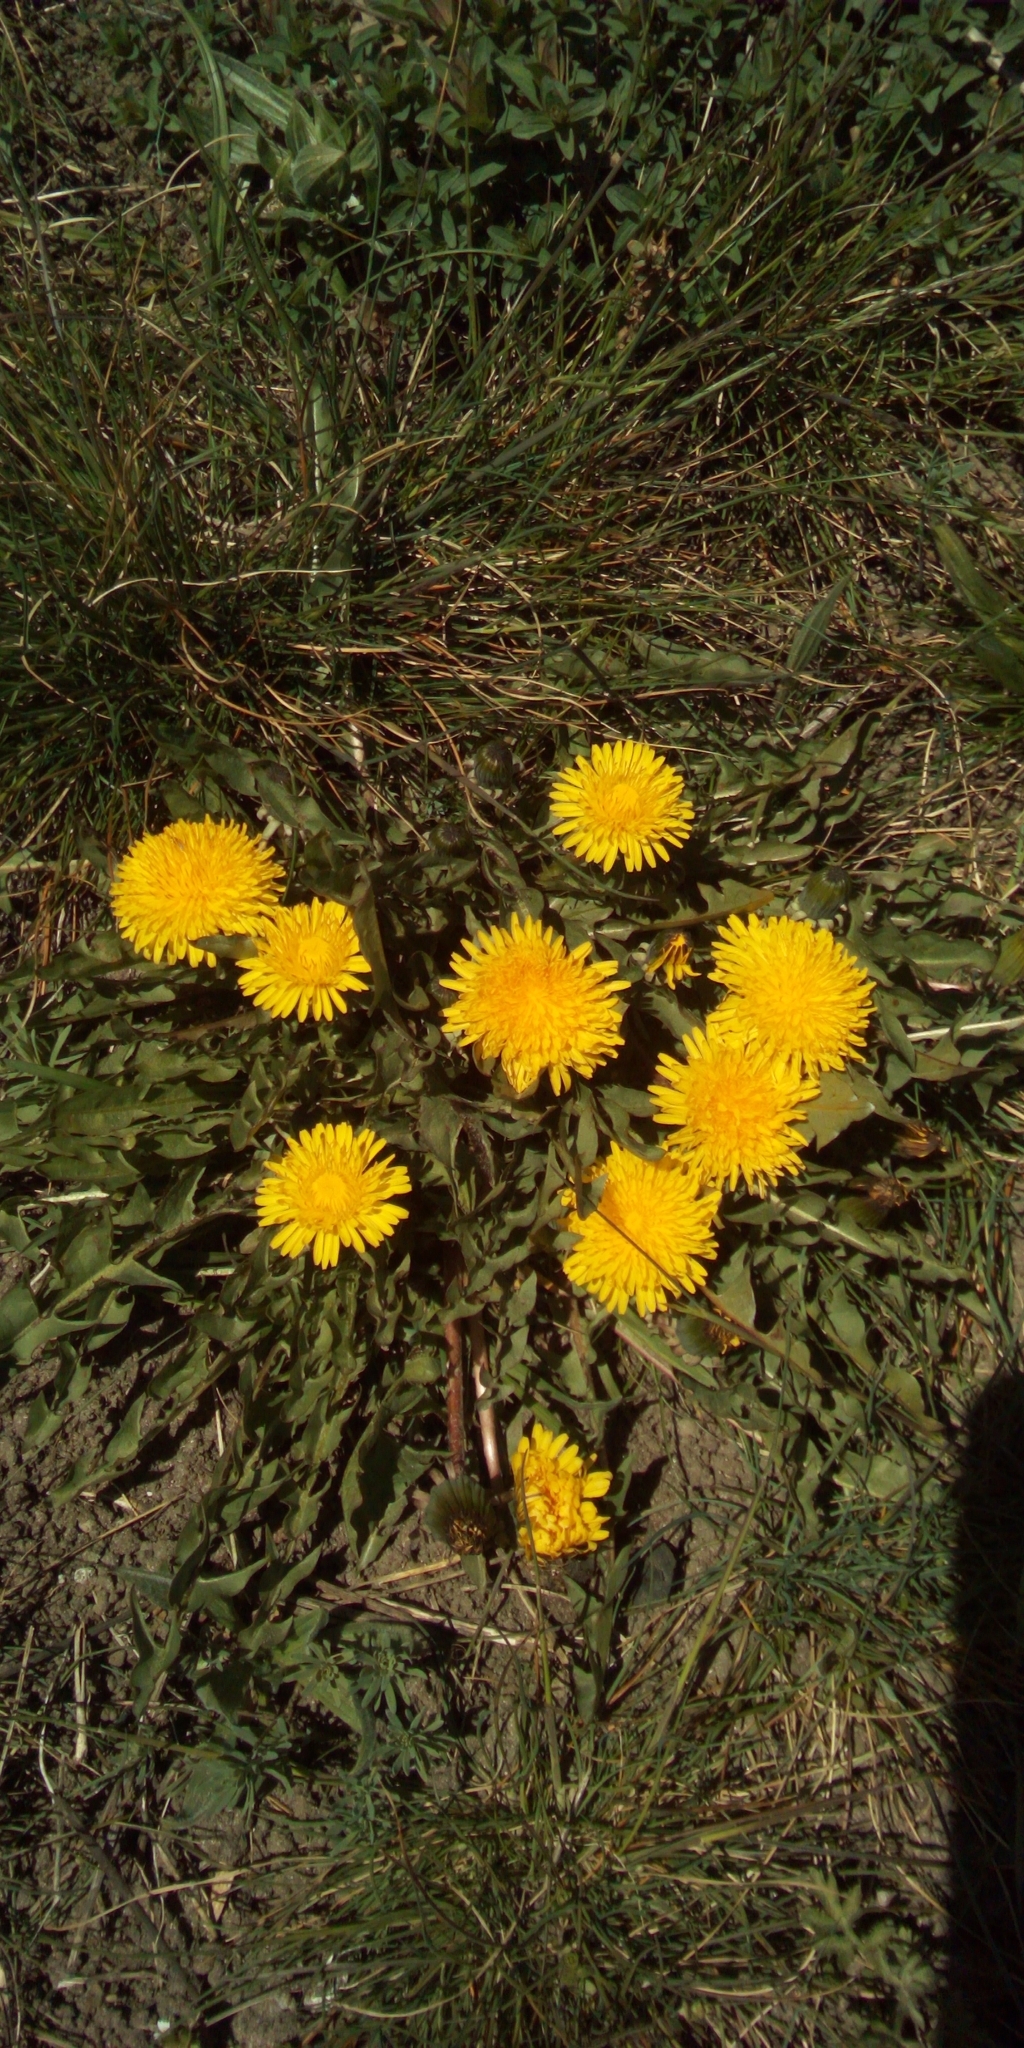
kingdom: Plantae
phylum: Tracheophyta
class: Magnoliopsida
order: Asterales
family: Asteraceae
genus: Taraxacum
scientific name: Taraxacum officinale
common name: Common dandelion
